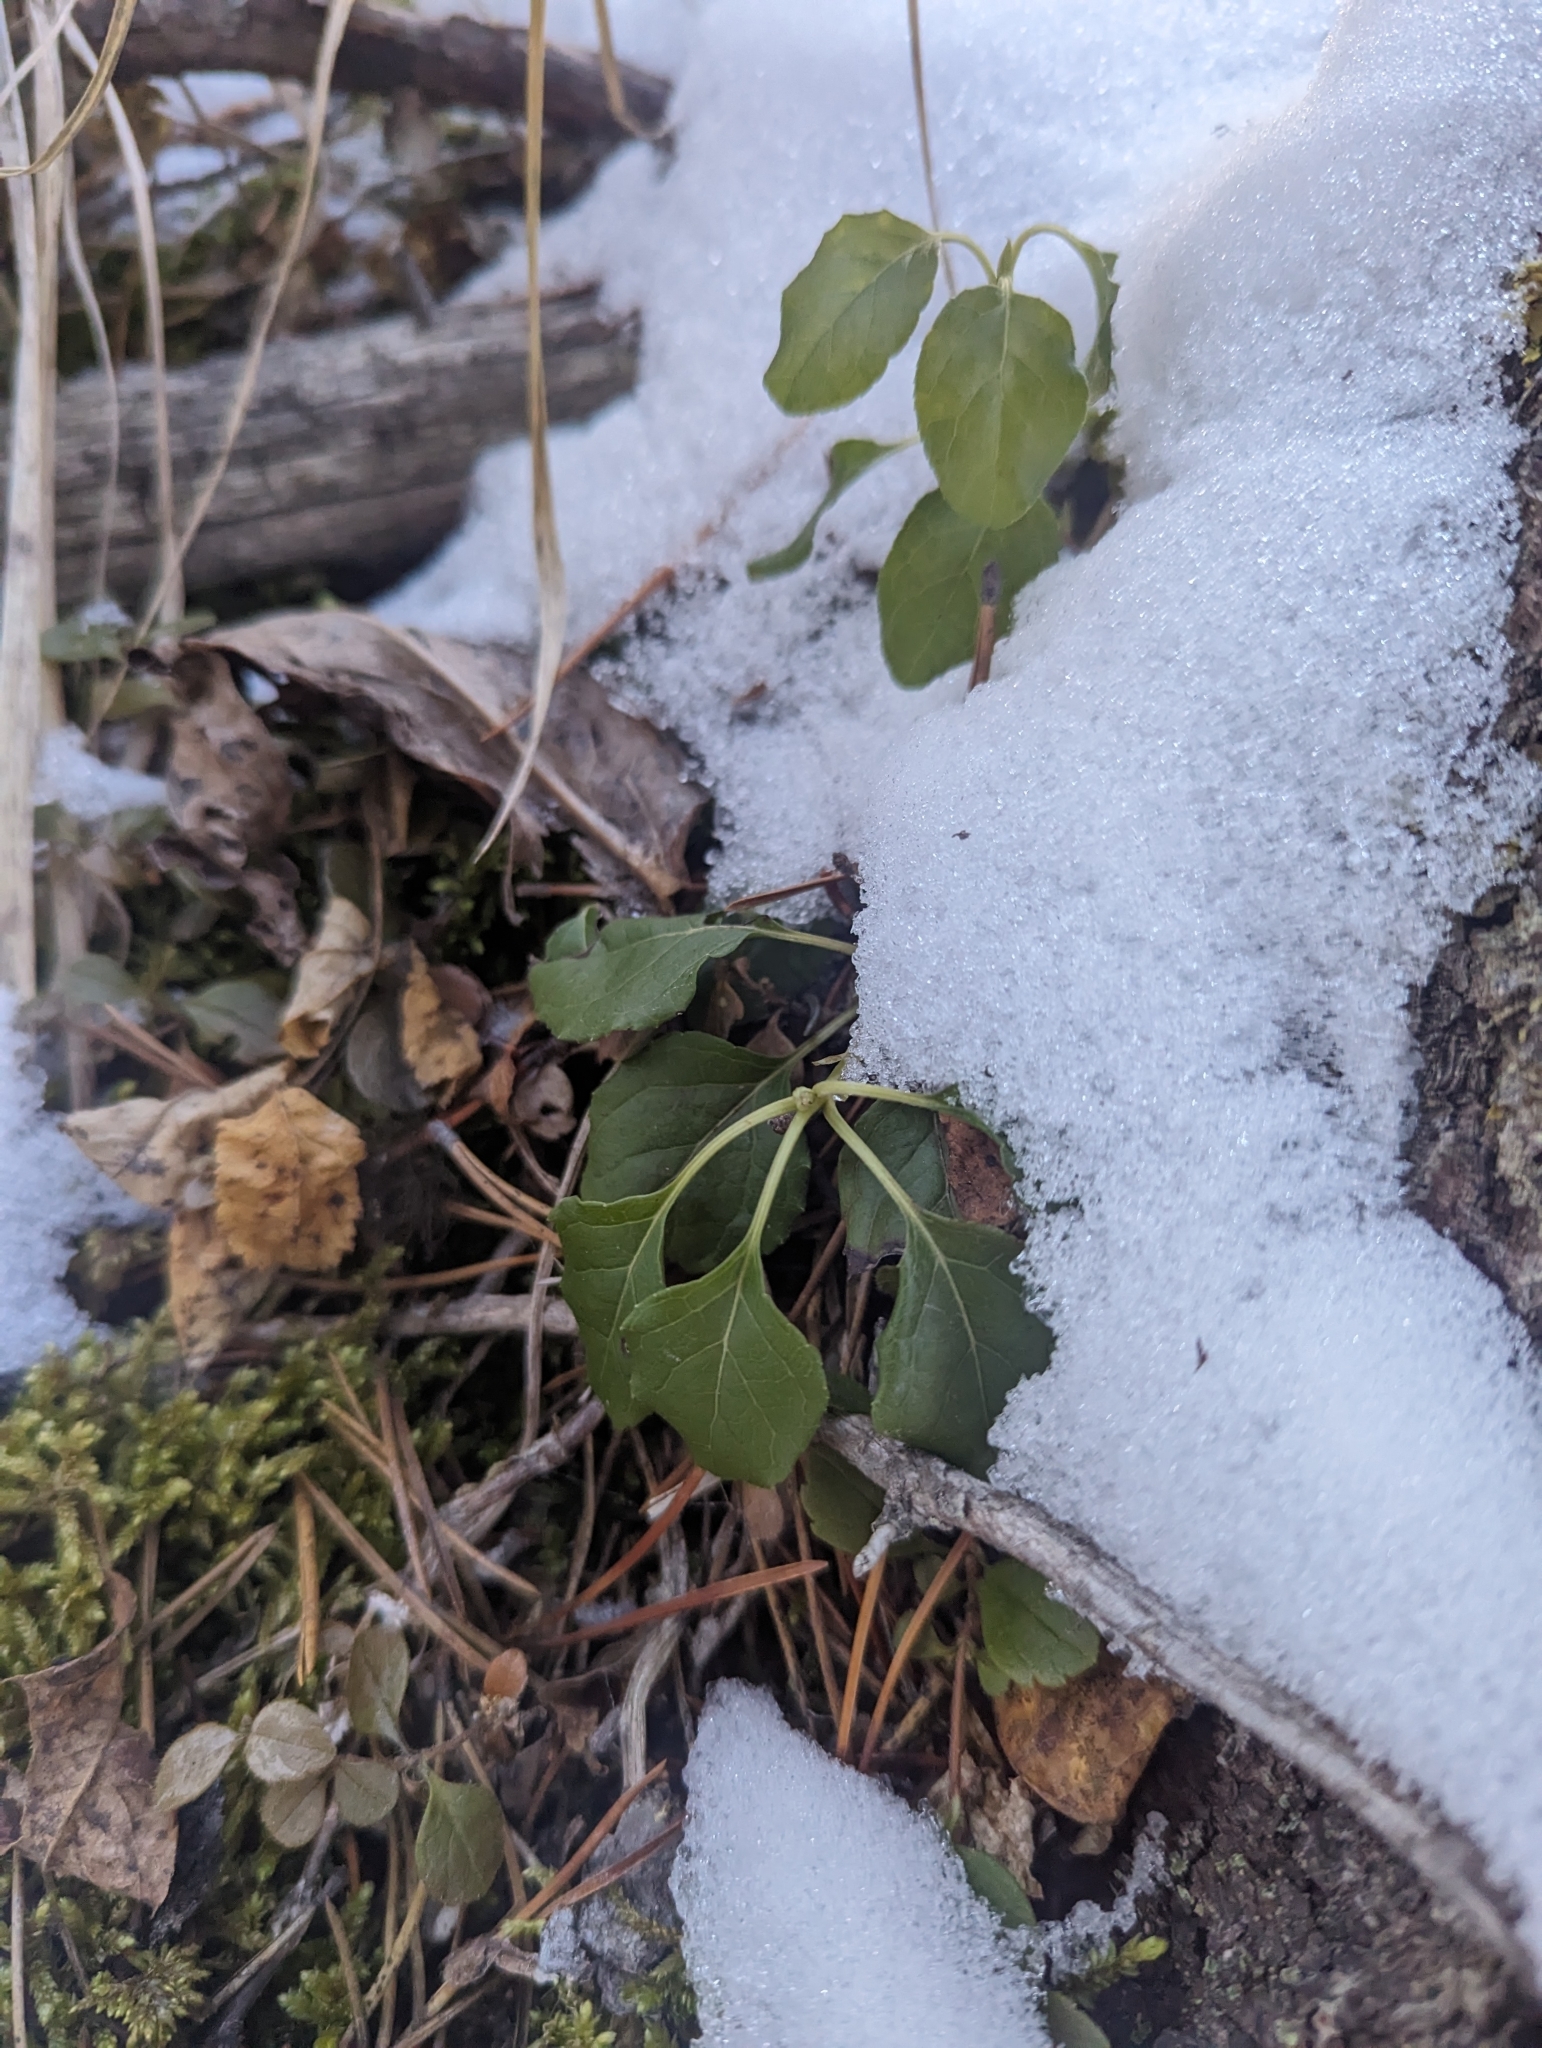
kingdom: Plantae
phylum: Tracheophyta
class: Magnoliopsida
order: Ericales
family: Ericaceae
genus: Orthilia
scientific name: Orthilia secunda
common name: One-sided orthilia
